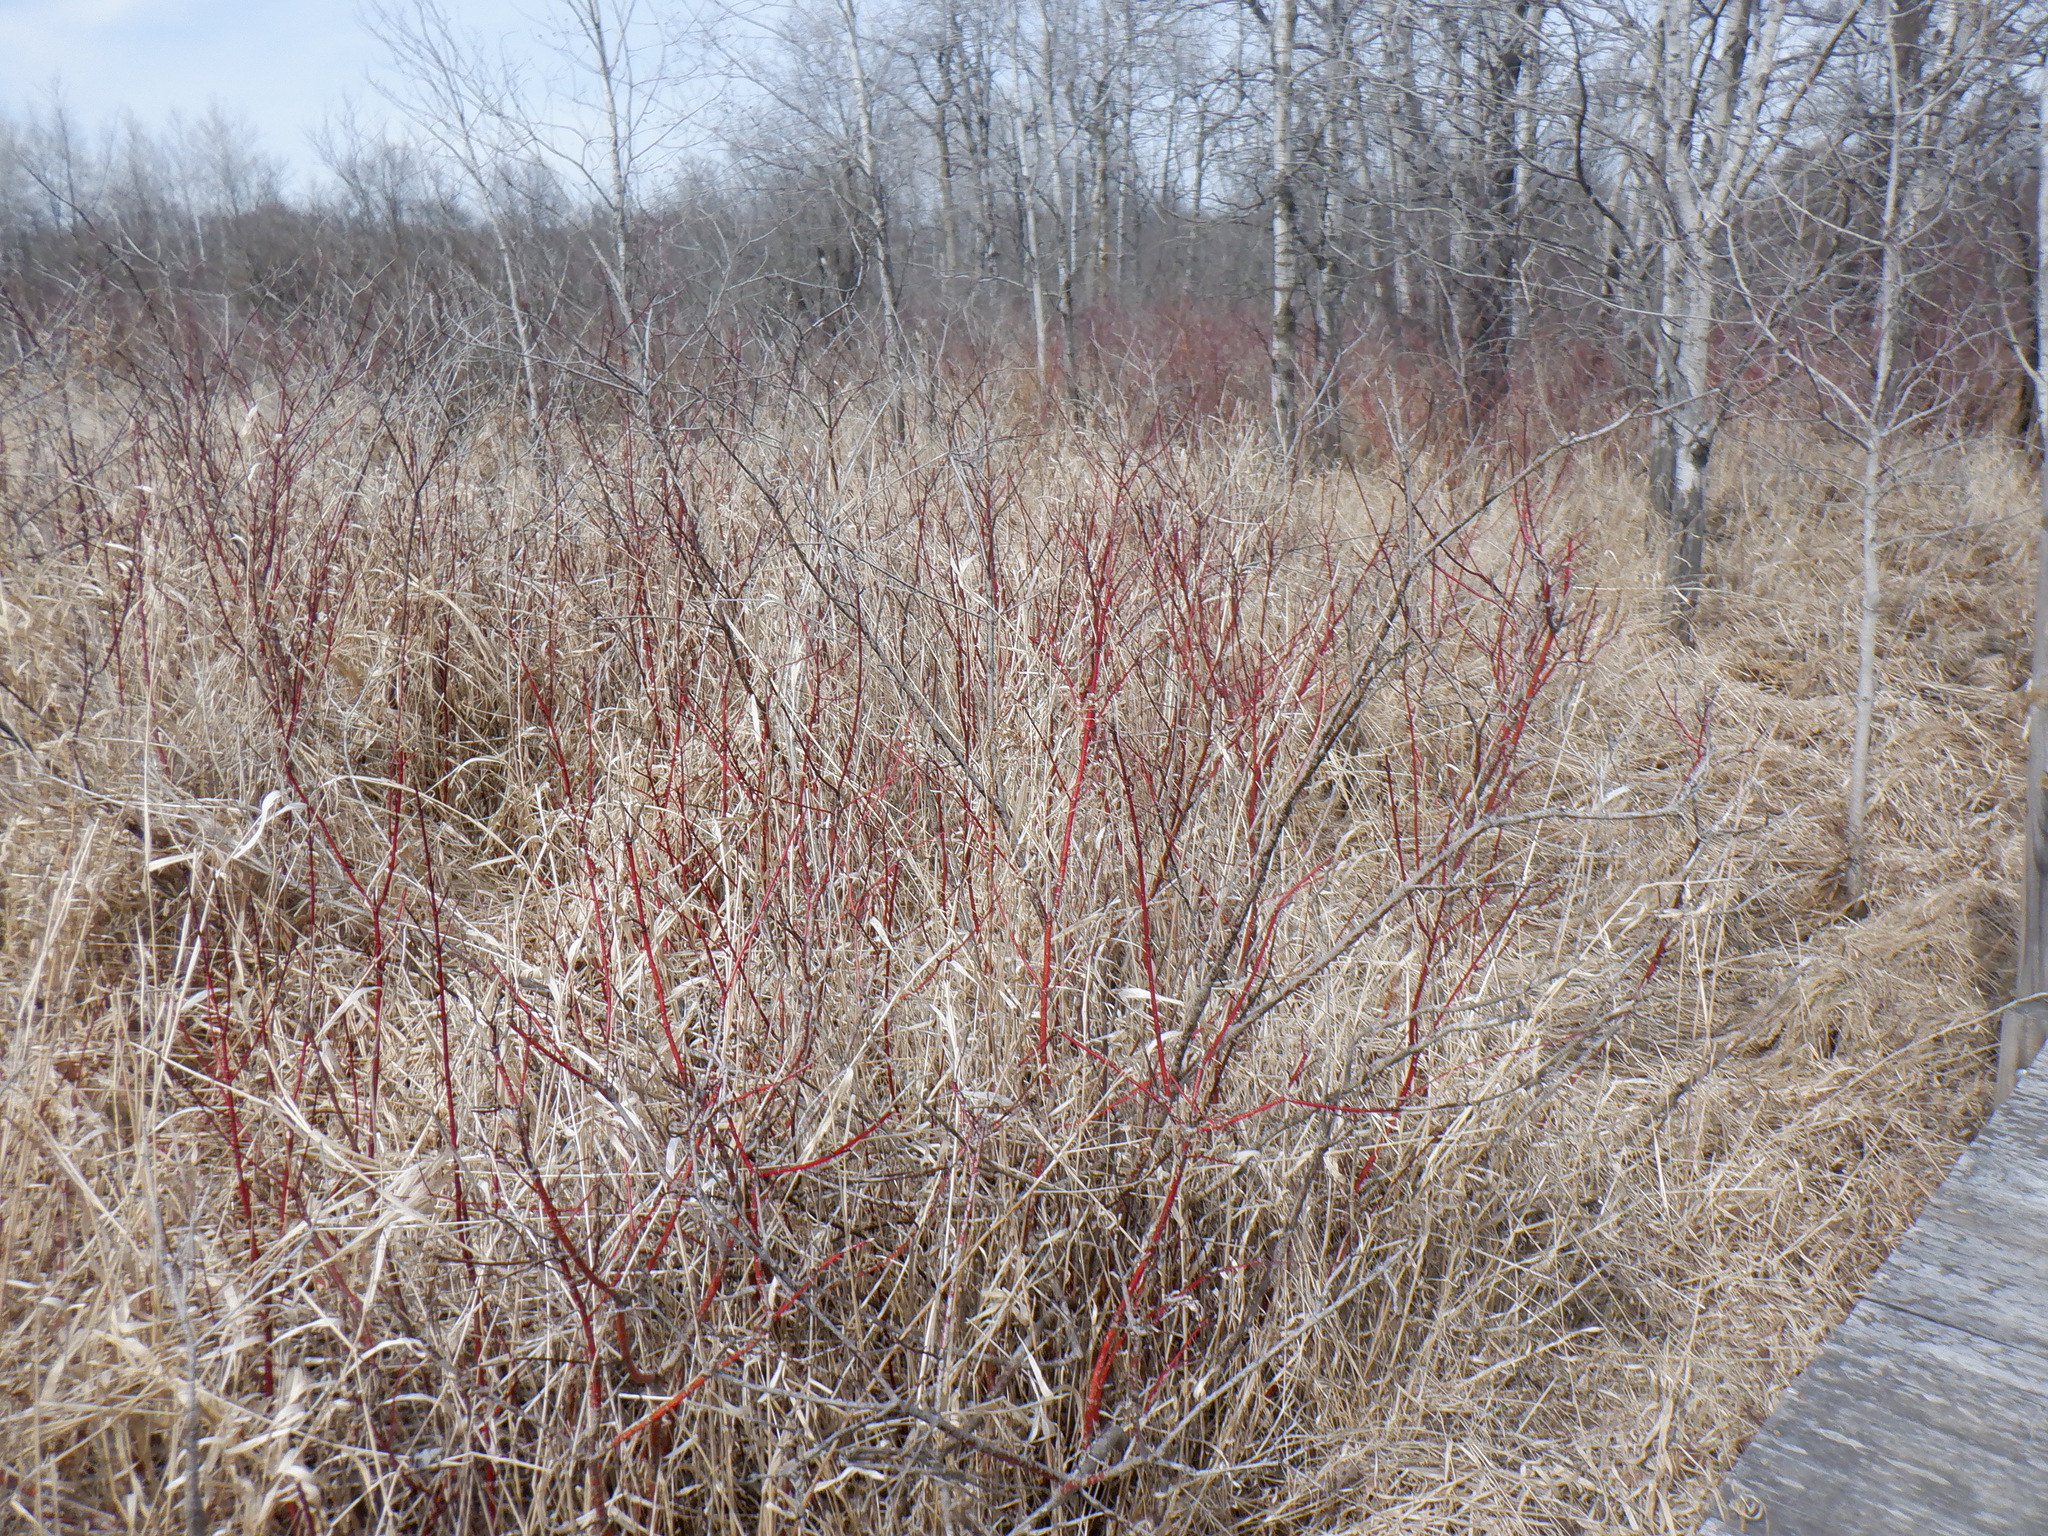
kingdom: Plantae
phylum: Tracheophyta
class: Magnoliopsida
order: Cornales
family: Cornaceae
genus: Cornus
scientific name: Cornus sericea
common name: Red-osier dogwood
